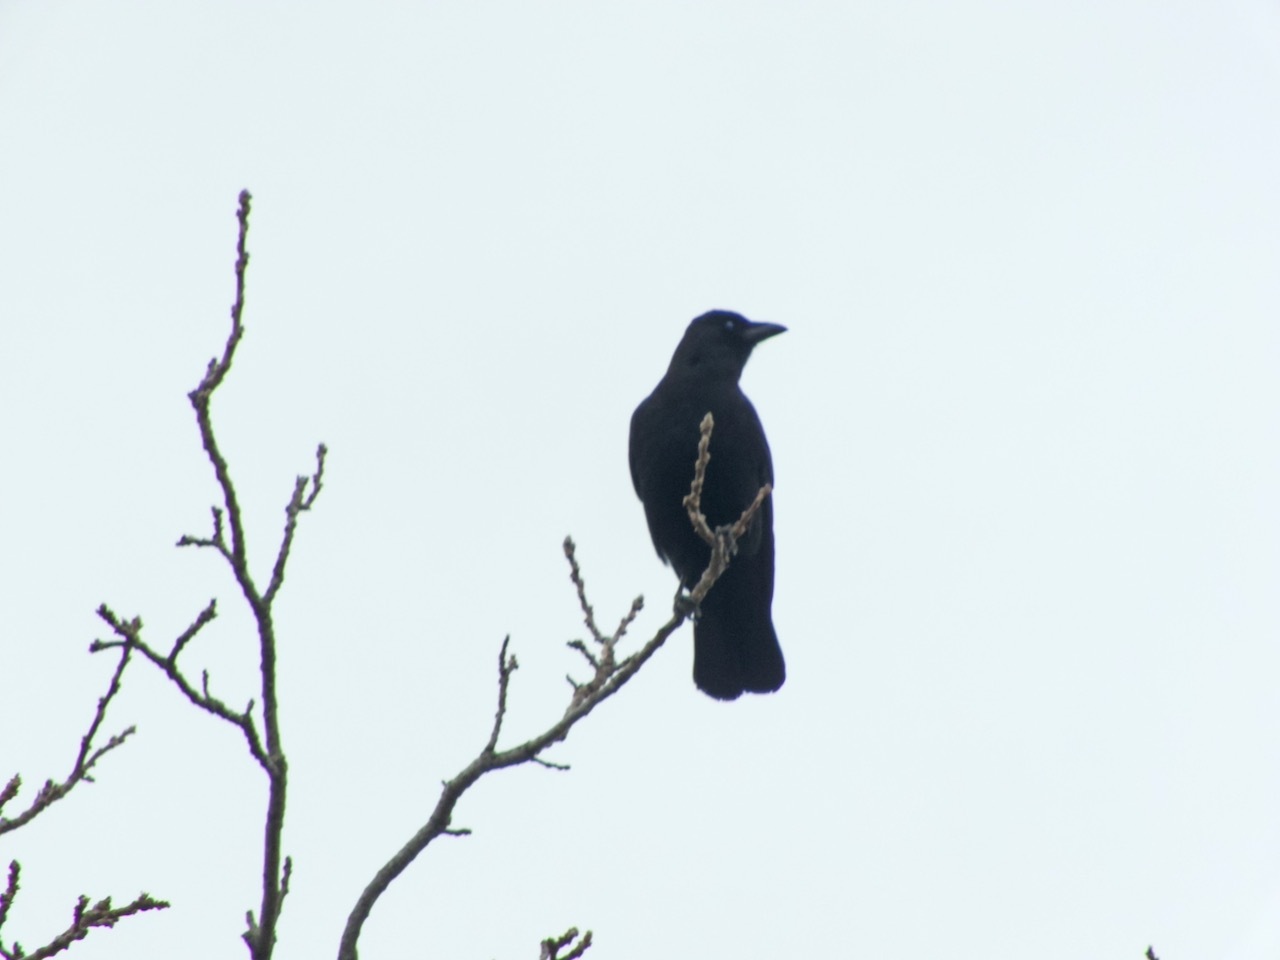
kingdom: Animalia
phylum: Chordata
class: Aves
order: Passeriformes
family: Corvidae
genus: Corvus
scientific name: Corvus brachyrhynchos
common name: American crow
